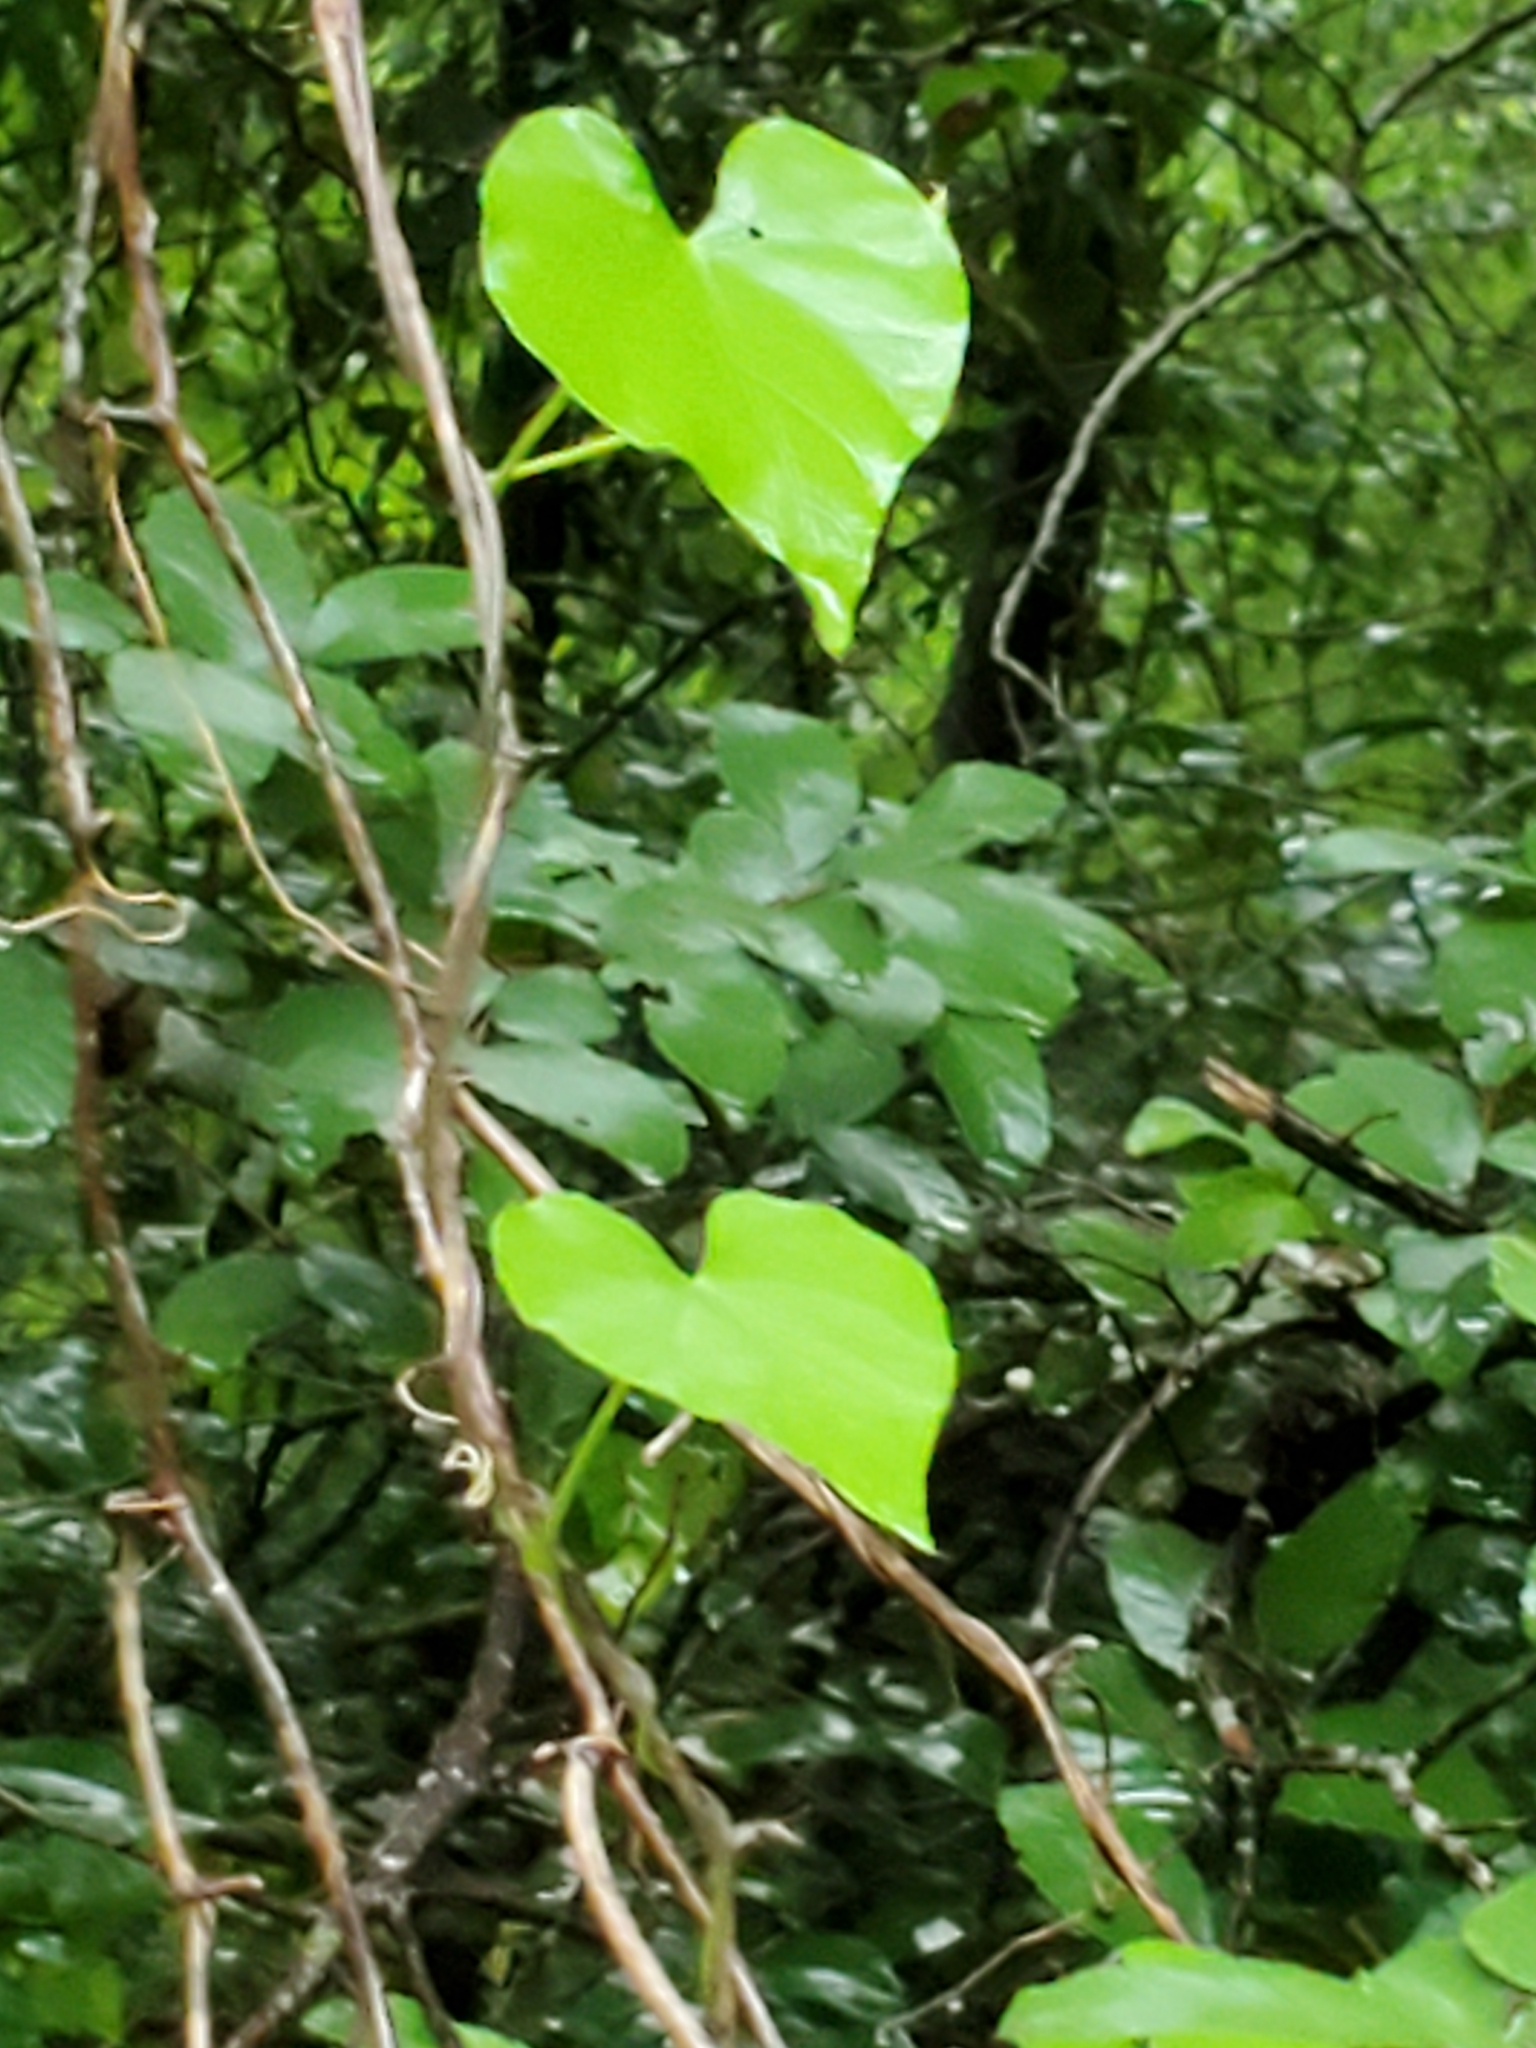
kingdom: Plantae
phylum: Tracheophyta
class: Magnoliopsida
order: Solanales
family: Convolvulaceae
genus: Ipomoea
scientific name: Ipomoea cordatotriloba
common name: Cotton morning glory
